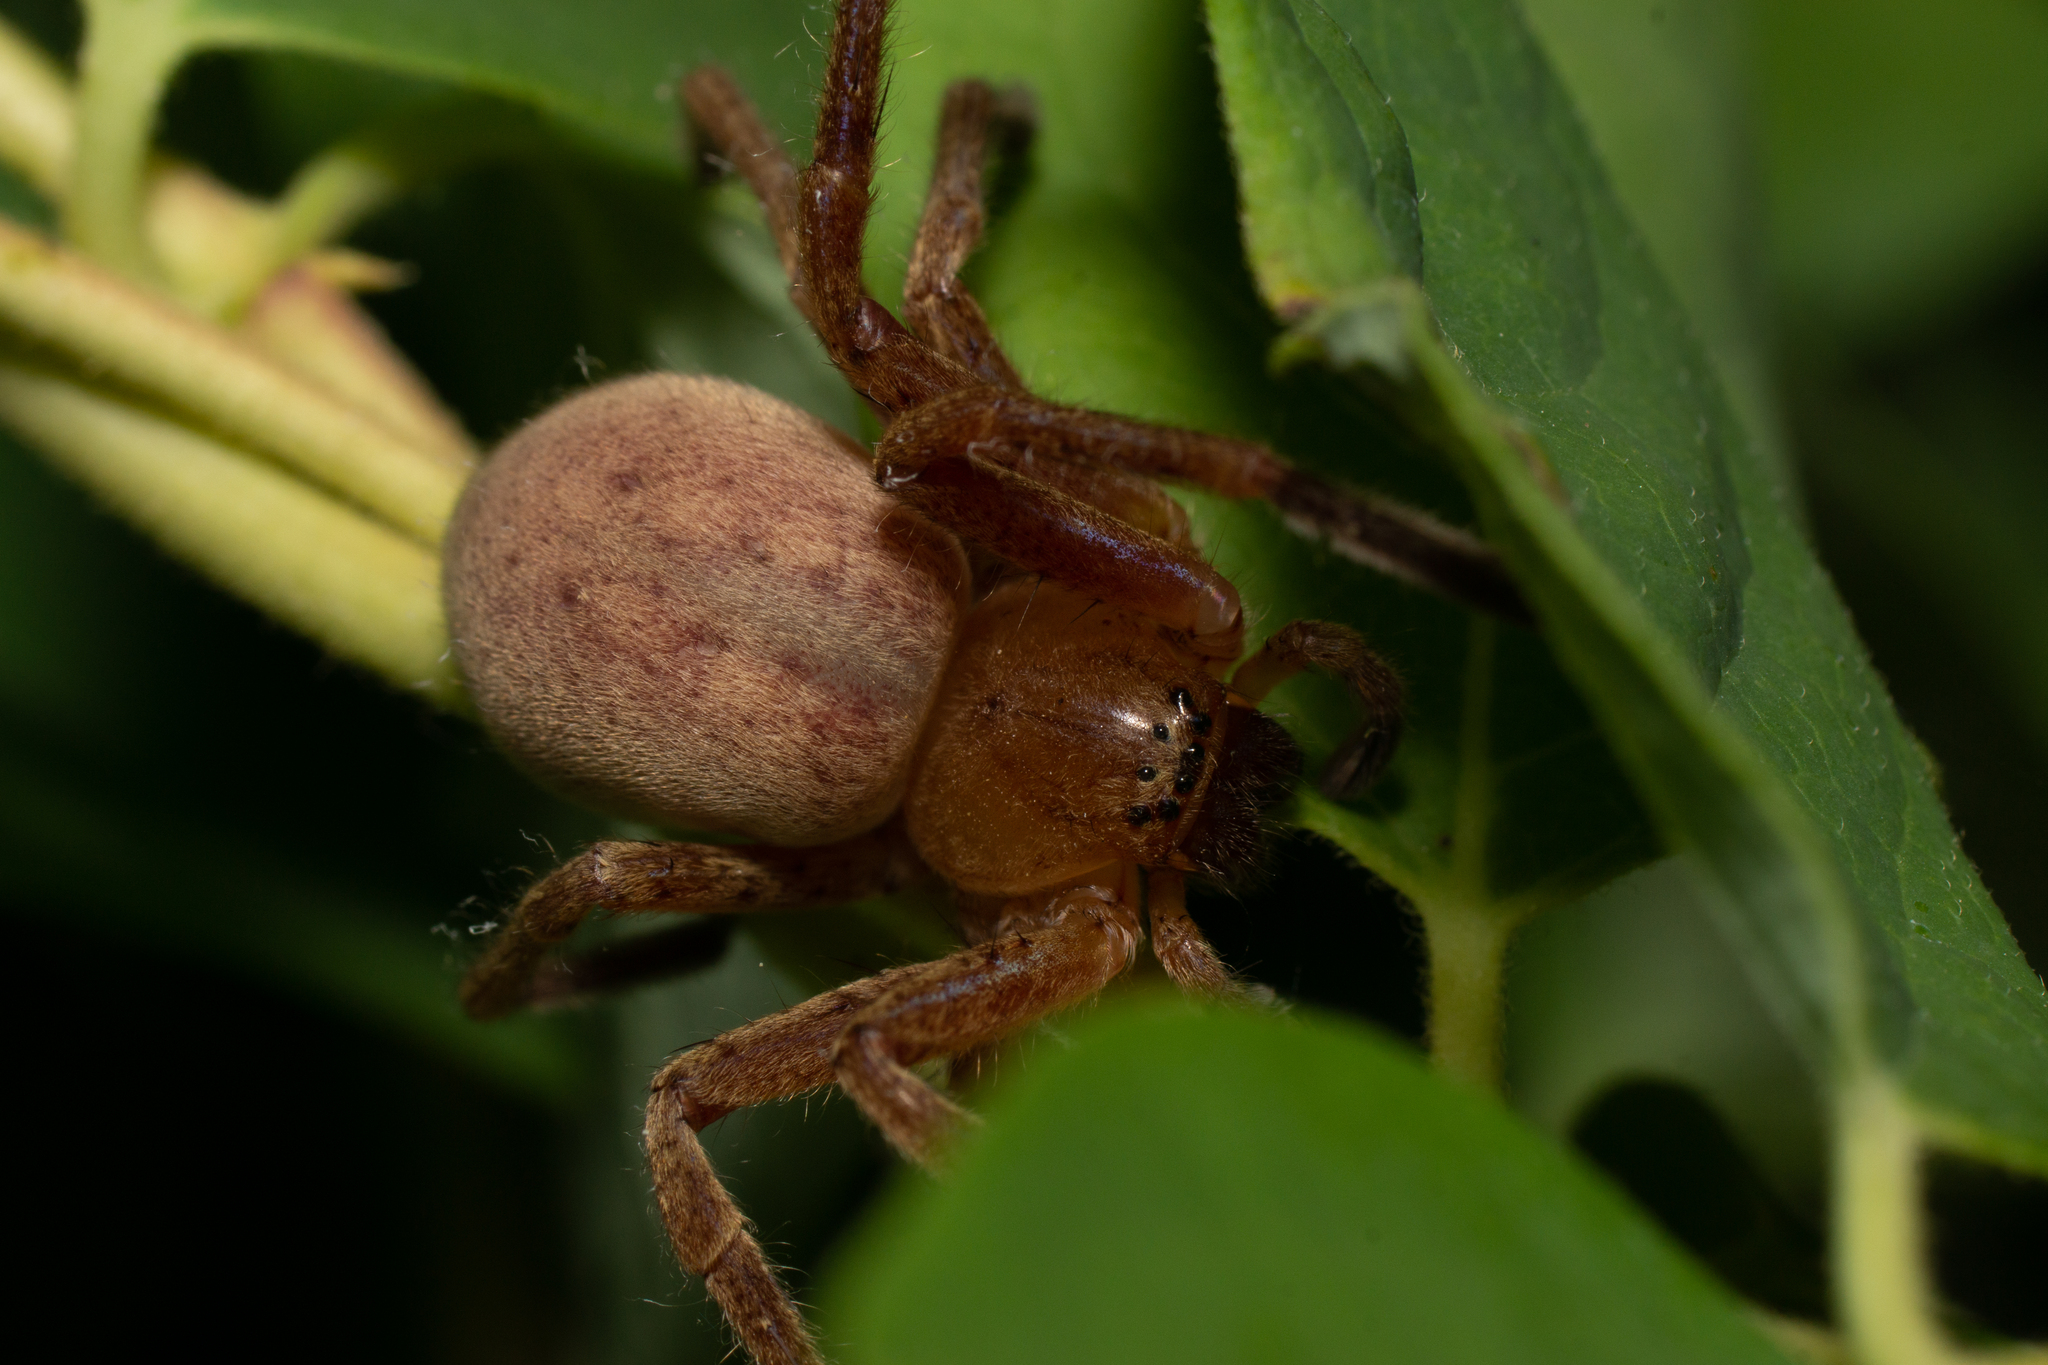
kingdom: Animalia
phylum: Arthropoda
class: Arachnida
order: Araneae
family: Sparassidae
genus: Olios
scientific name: Olios argelasius
